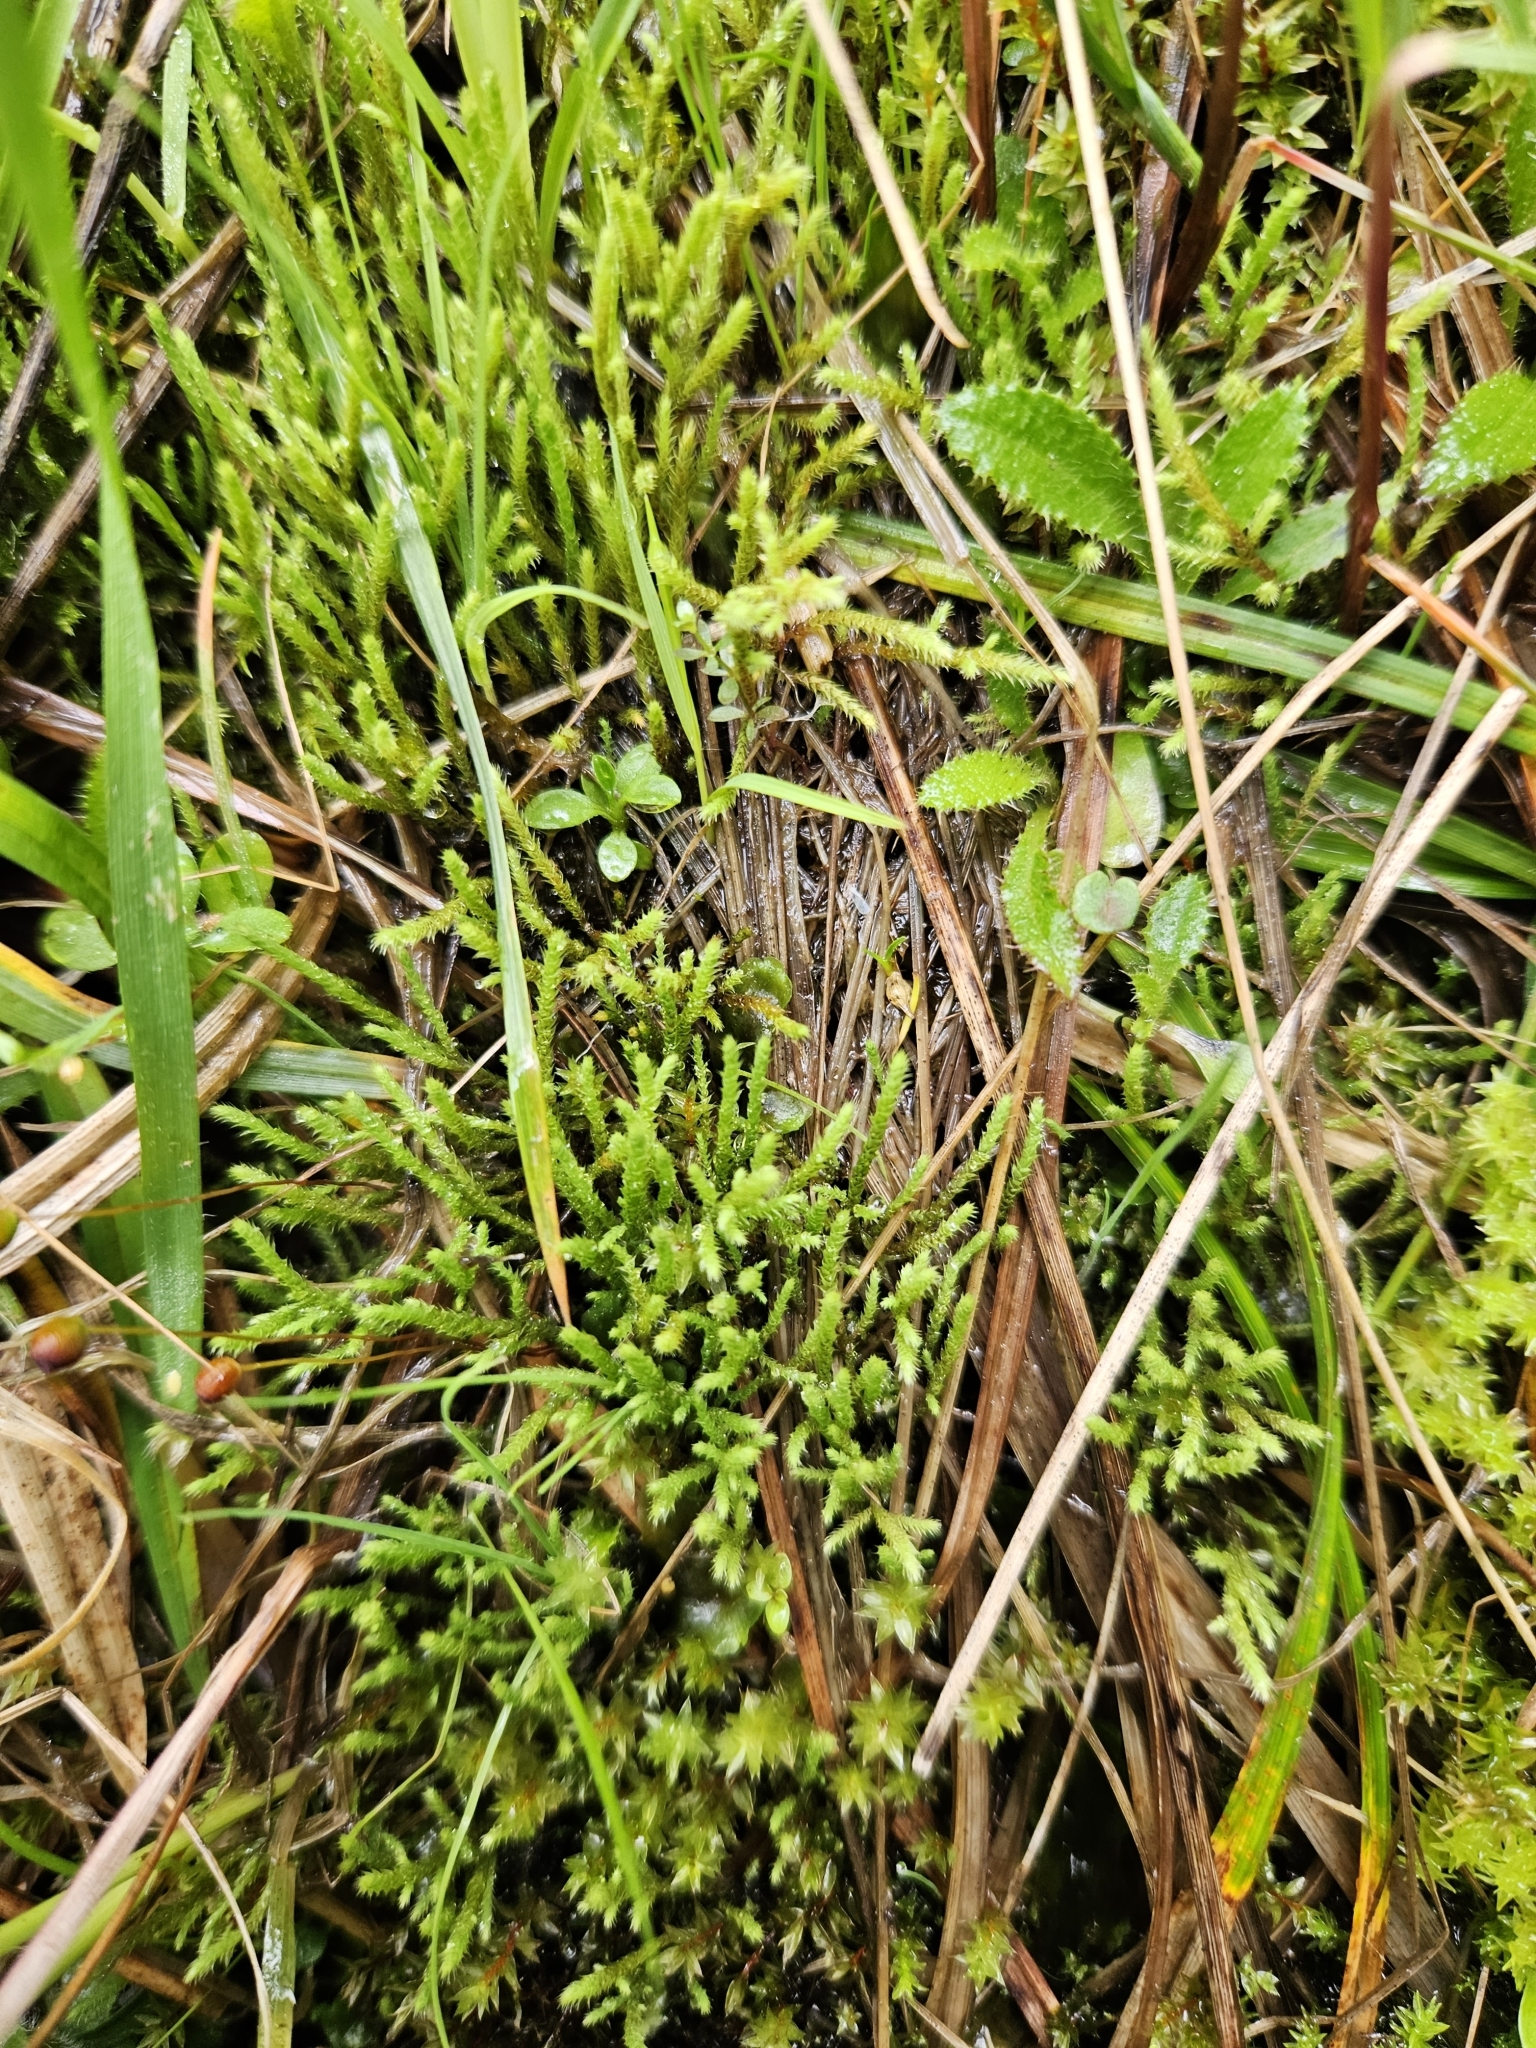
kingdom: Plantae
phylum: Bryophyta
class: Bryopsida
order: Bartramiales
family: Bartramiaceae
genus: Philonotis
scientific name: Philonotis fontana
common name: Fountain apple-moss
